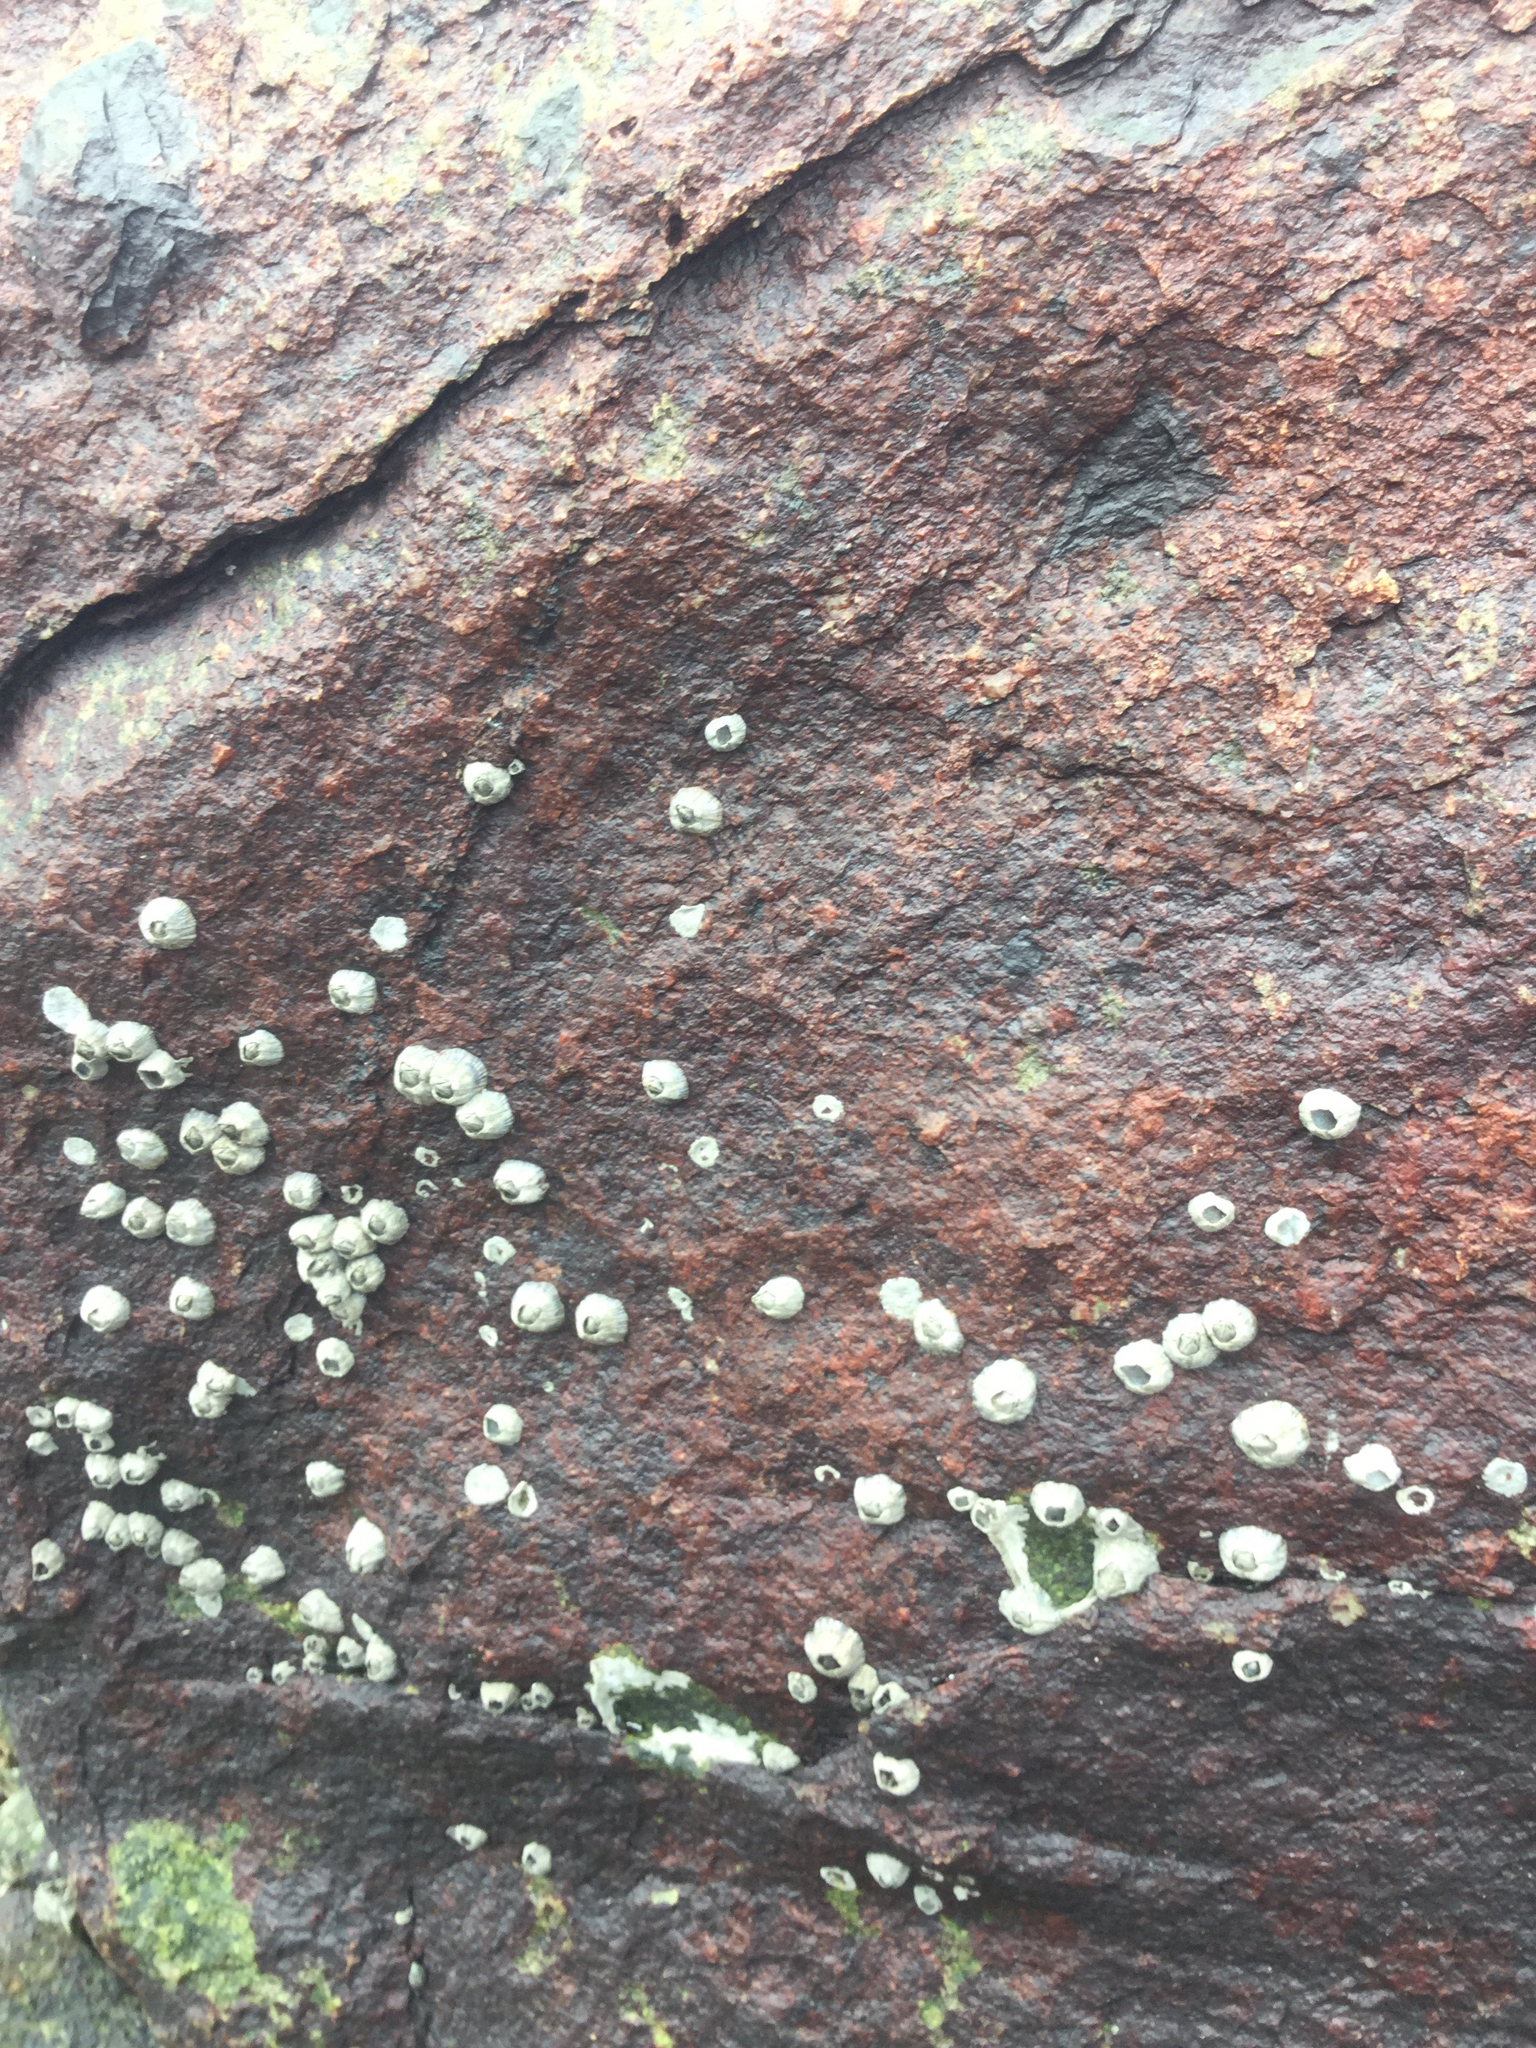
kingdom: Animalia
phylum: Arthropoda
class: Maxillopoda
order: Sessilia
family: Balanidae
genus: Amphibalanus
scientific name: Amphibalanus amphitrite
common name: Striped acorn barnacle
